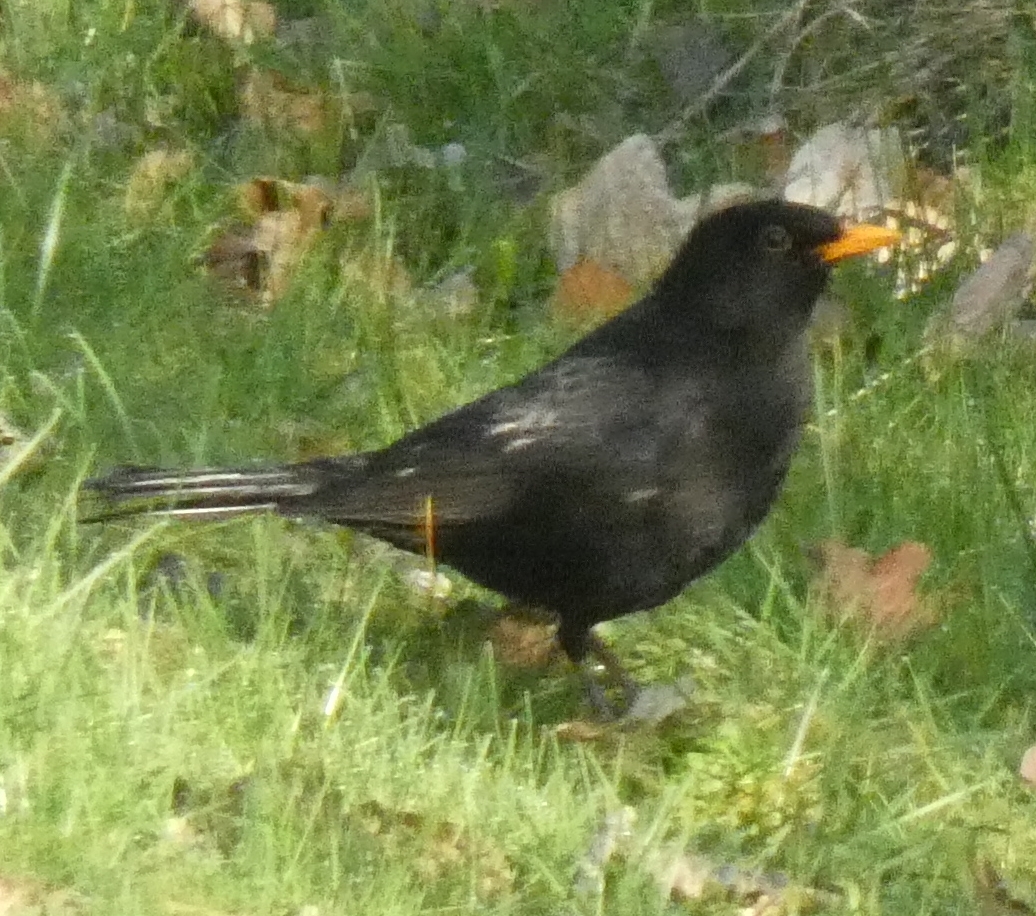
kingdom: Animalia
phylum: Chordata
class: Aves
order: Passeriformes
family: Turdidae
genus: Turdus
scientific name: Turdus merula
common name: Common blackbird
